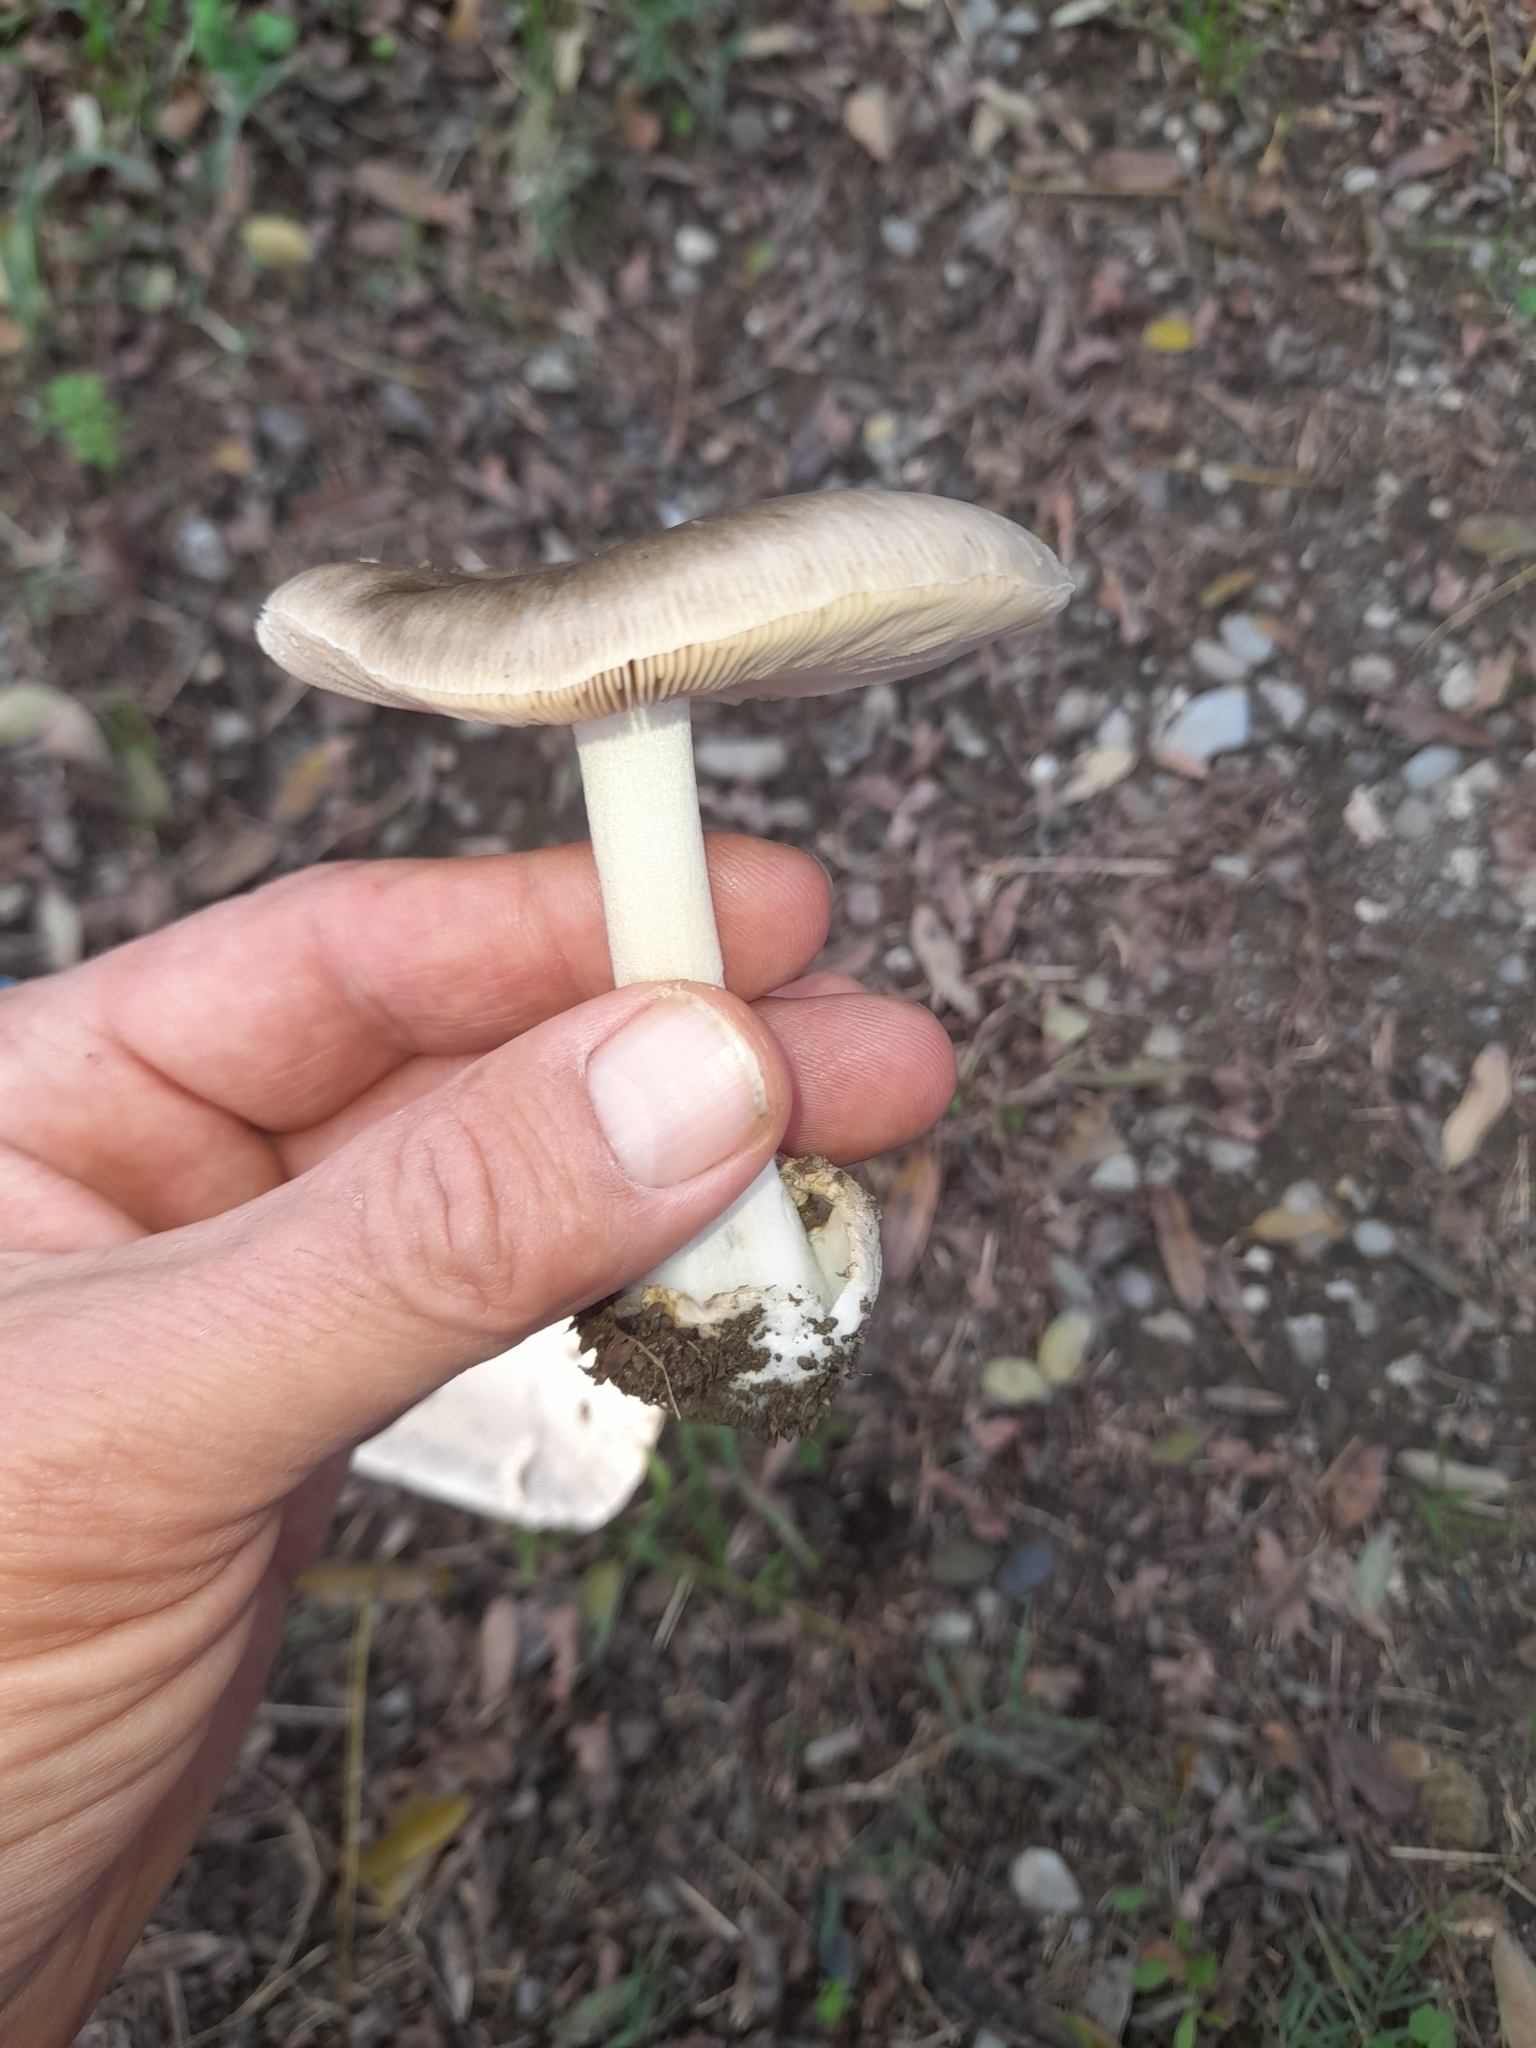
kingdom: Fungi
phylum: Basidiomycota
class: Agaricomycetes
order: Agaricales
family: Pluteaceae
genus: Volvopluteus
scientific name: Volvopluteus gloiocephalus
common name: Stubble rosegill
